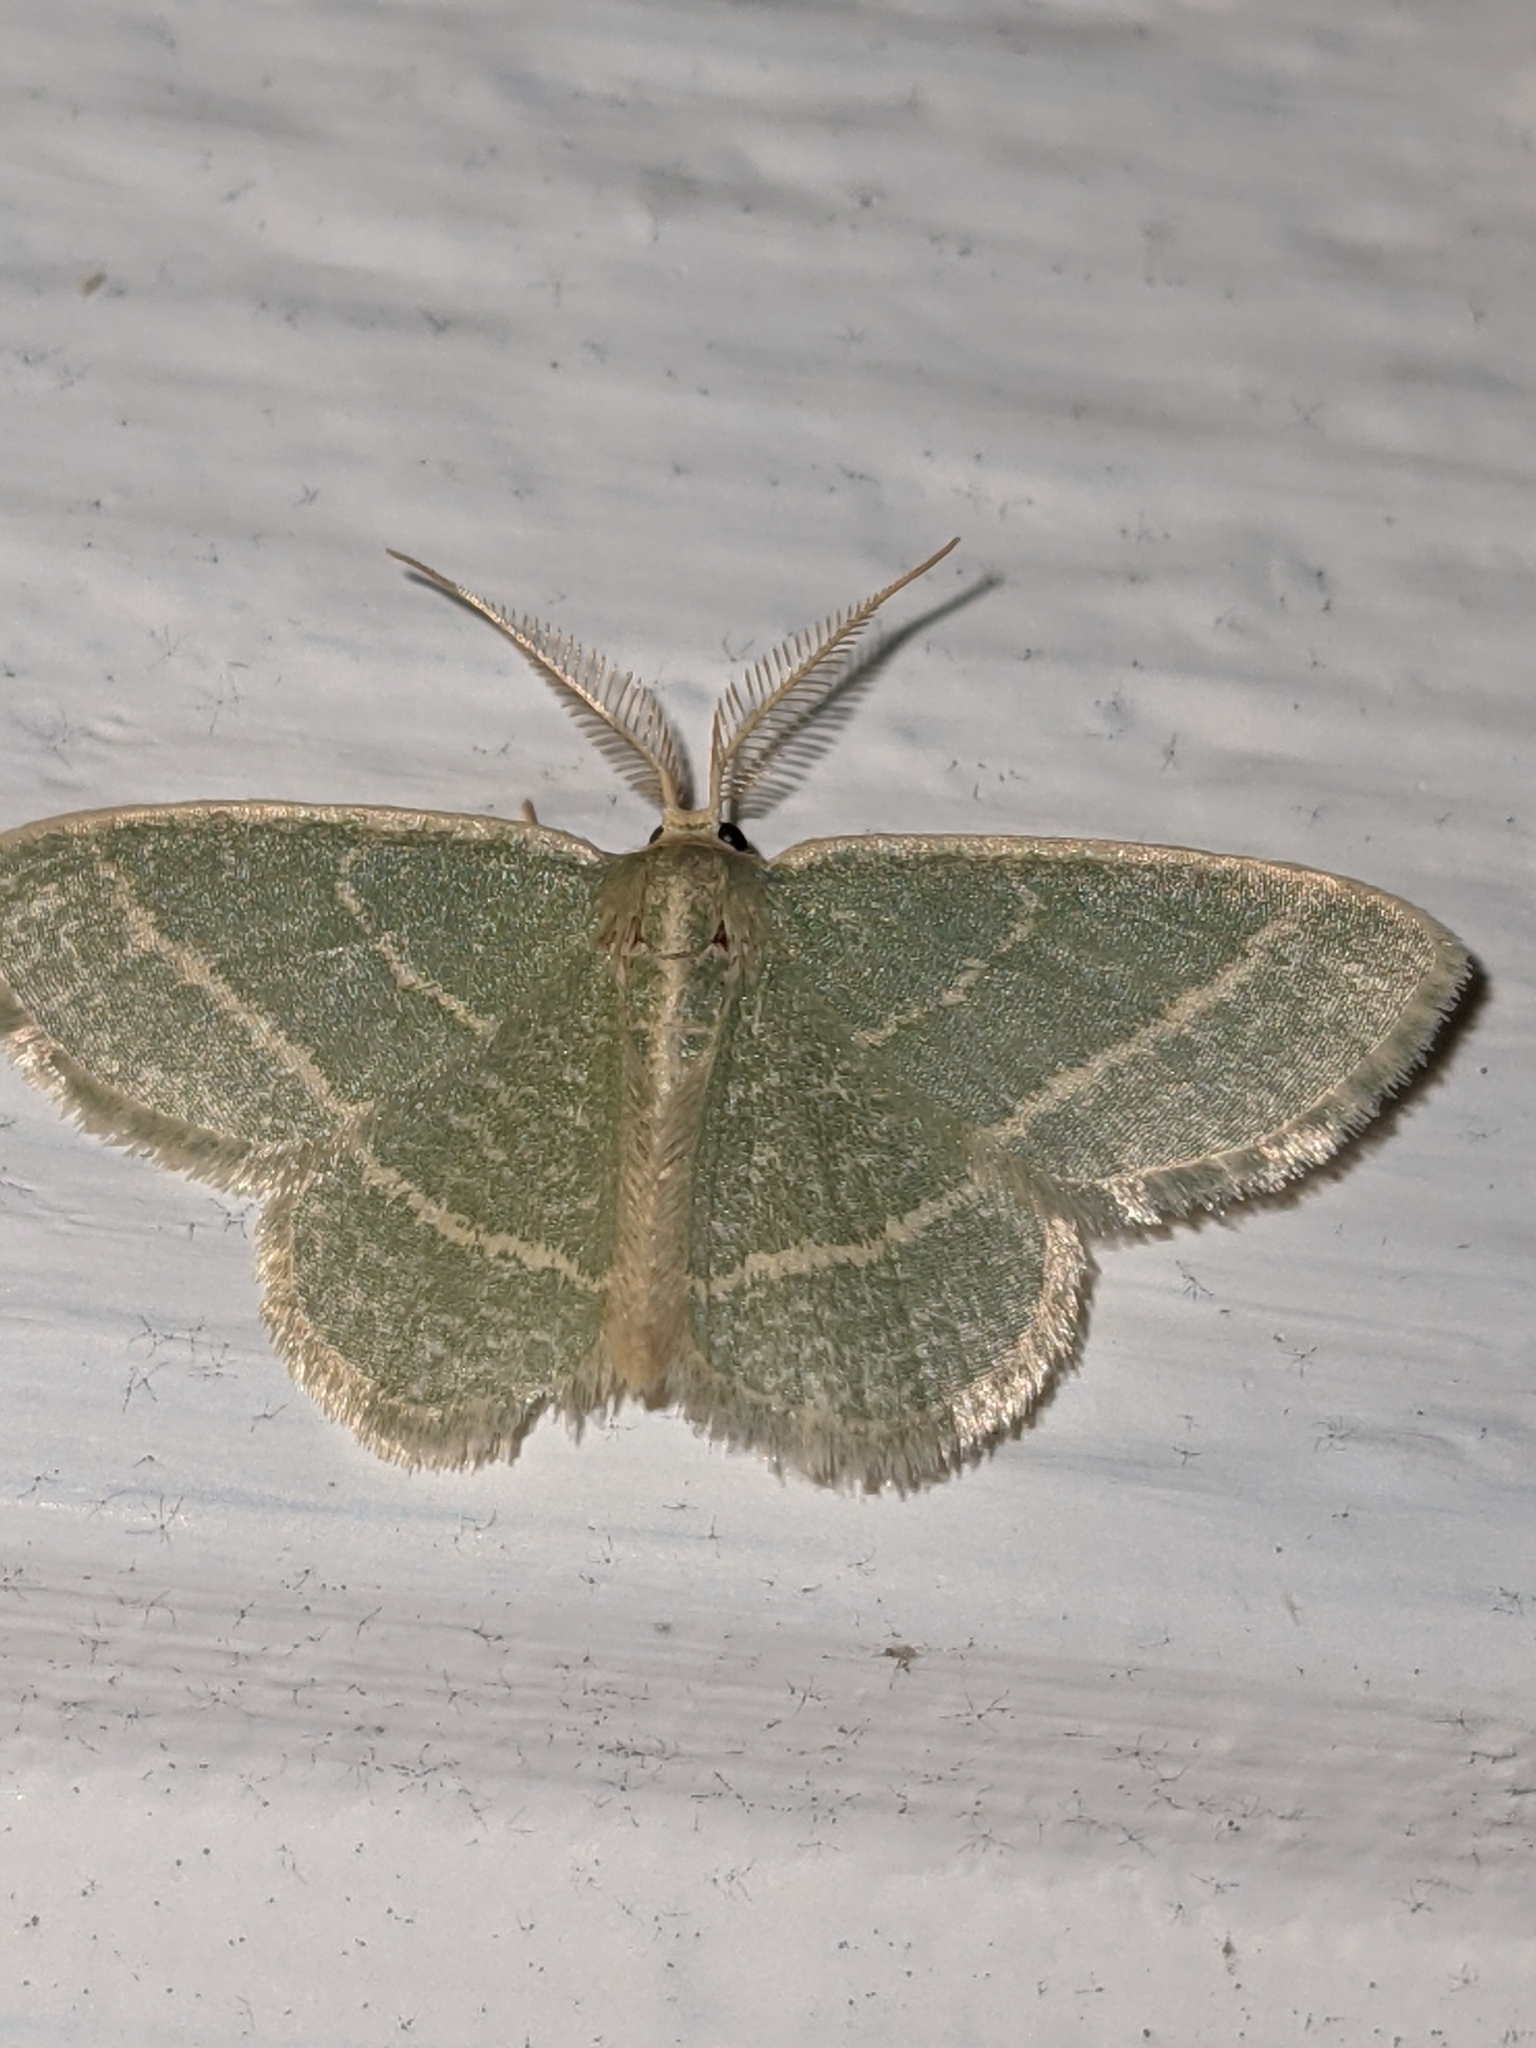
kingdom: Animalia
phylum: Arthropoda
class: Insecta
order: Lepidoptera
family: Geometridae
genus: Chlorochlamys
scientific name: Chlorochlamys chloroleucaria
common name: Blackberry looper
